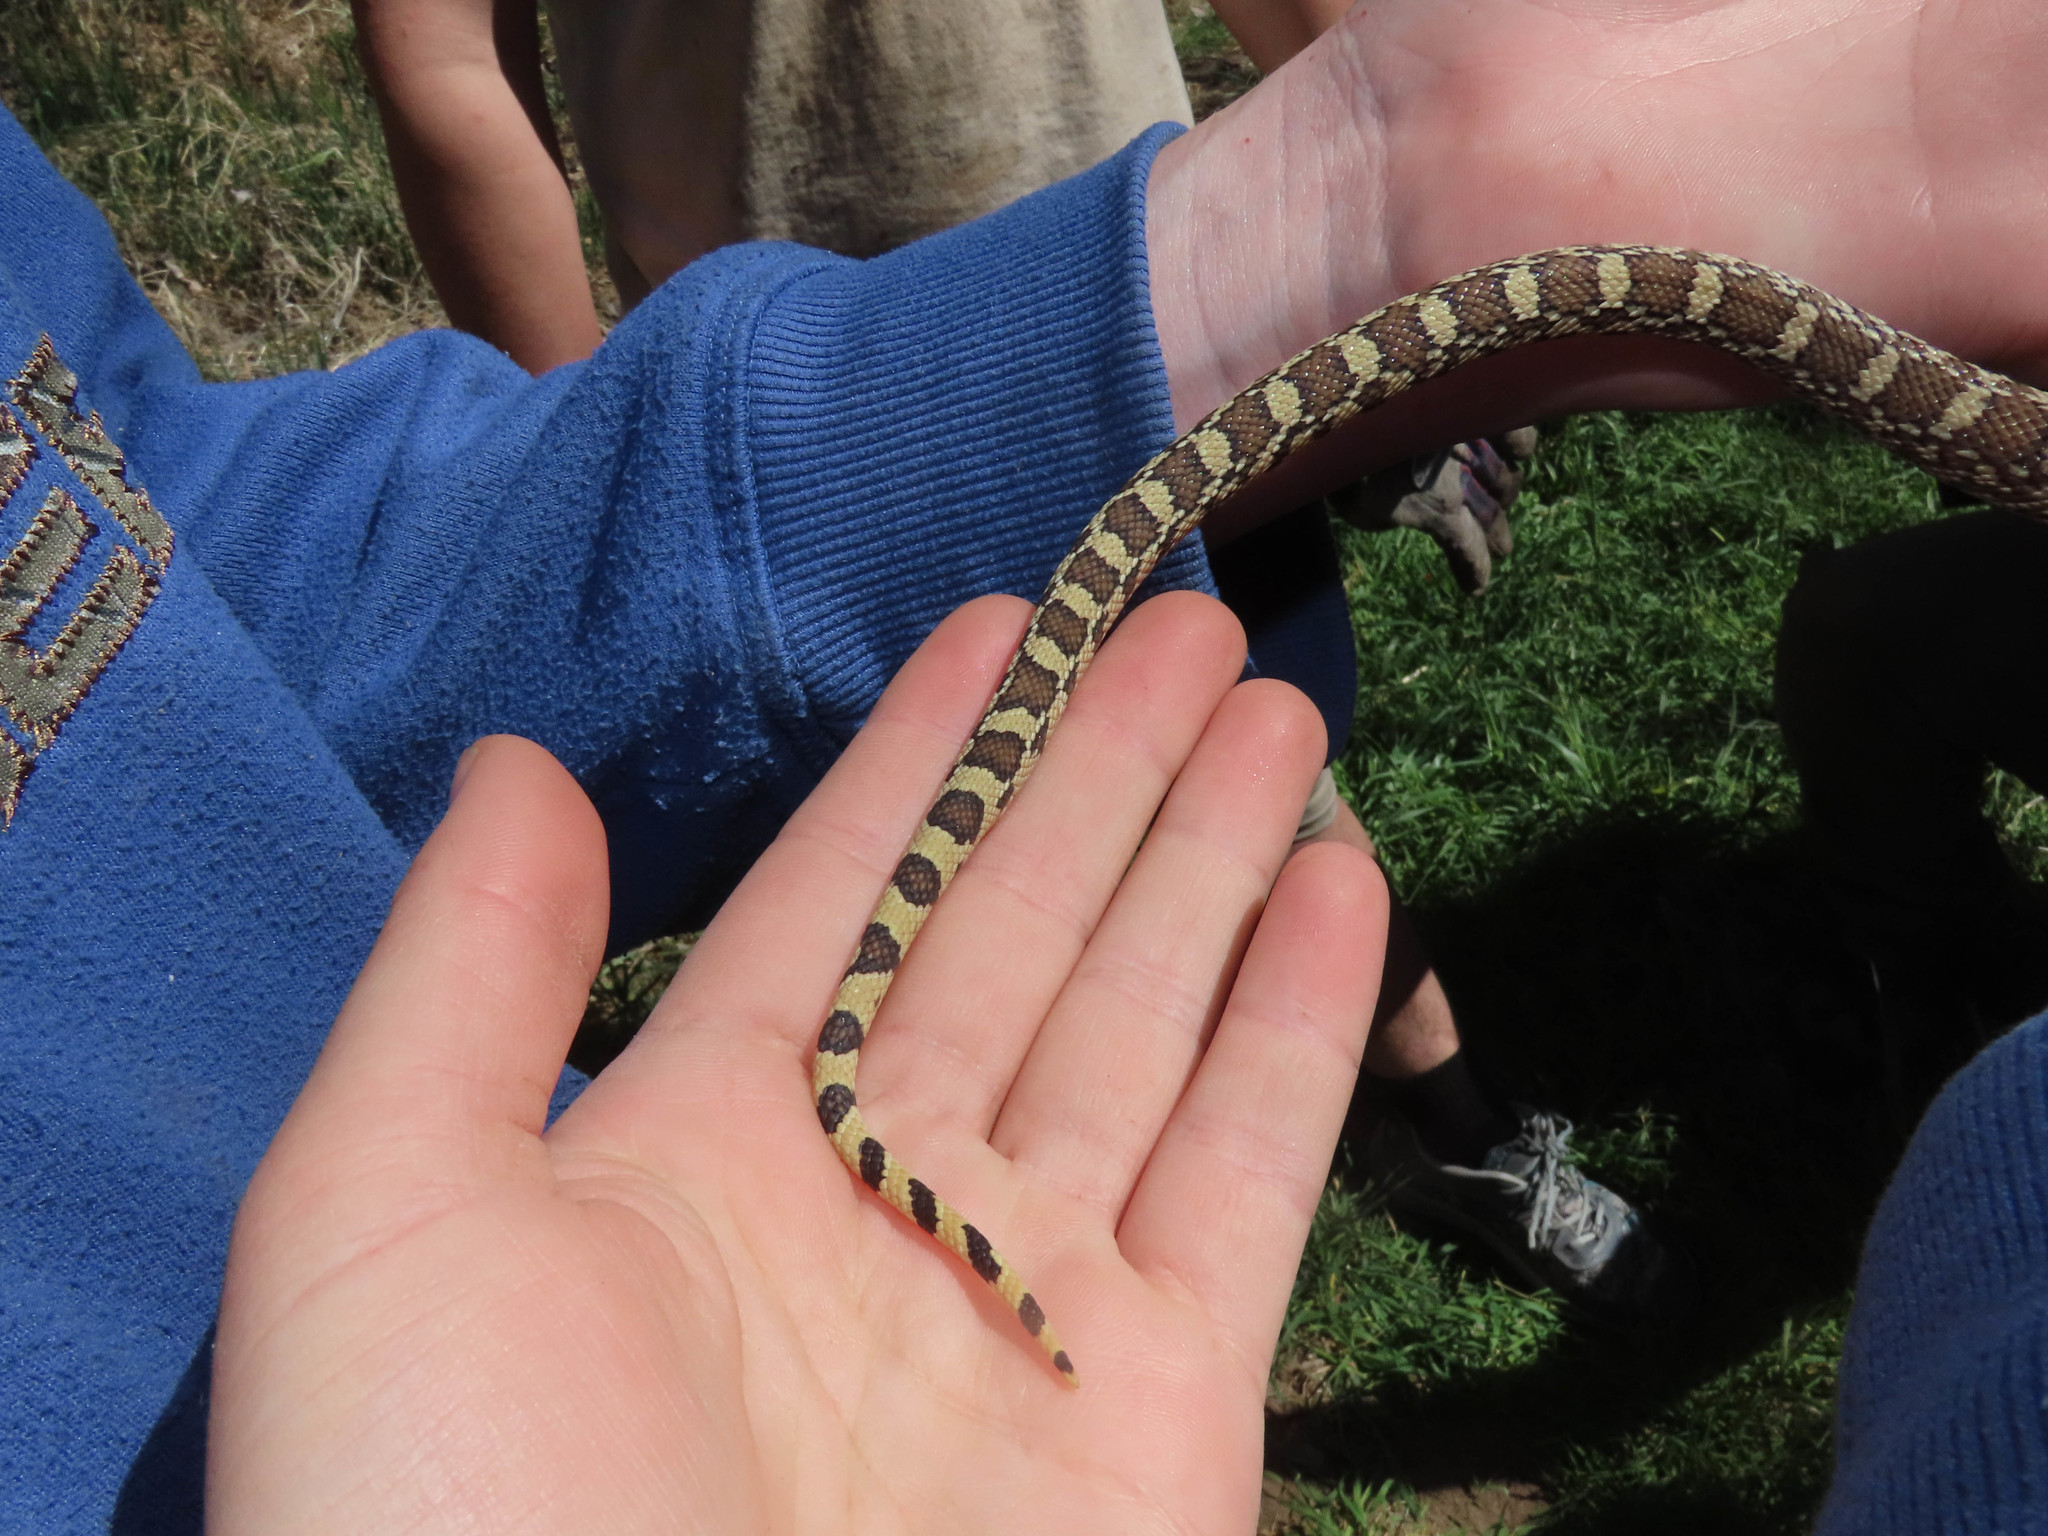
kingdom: Animalia
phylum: Chordata
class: Squamata
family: Colubridae
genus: Pituophis
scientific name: Pituophis catenifer
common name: Gopher snake
